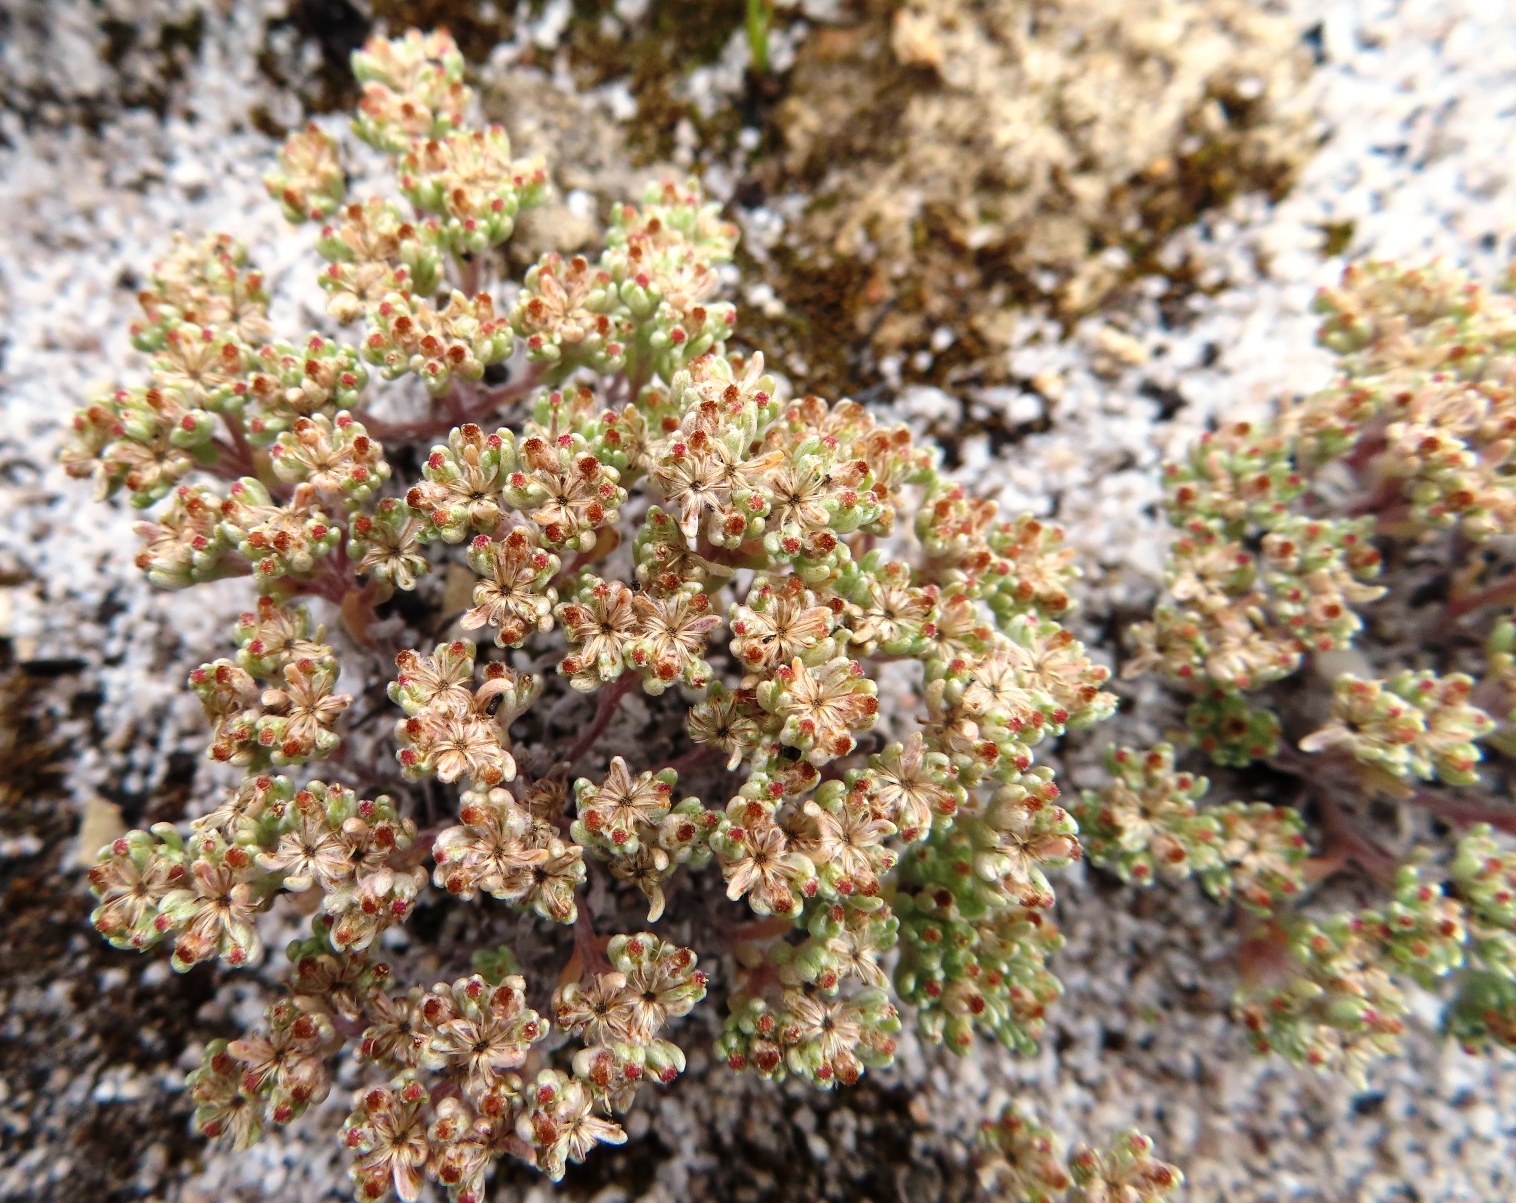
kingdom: Plantae
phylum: Tracheophyta
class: Magnoliopsida
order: Asterales
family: Asteraceae
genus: Vellereophyton
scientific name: Vellereophyton dealbatum
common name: White-cudweed
